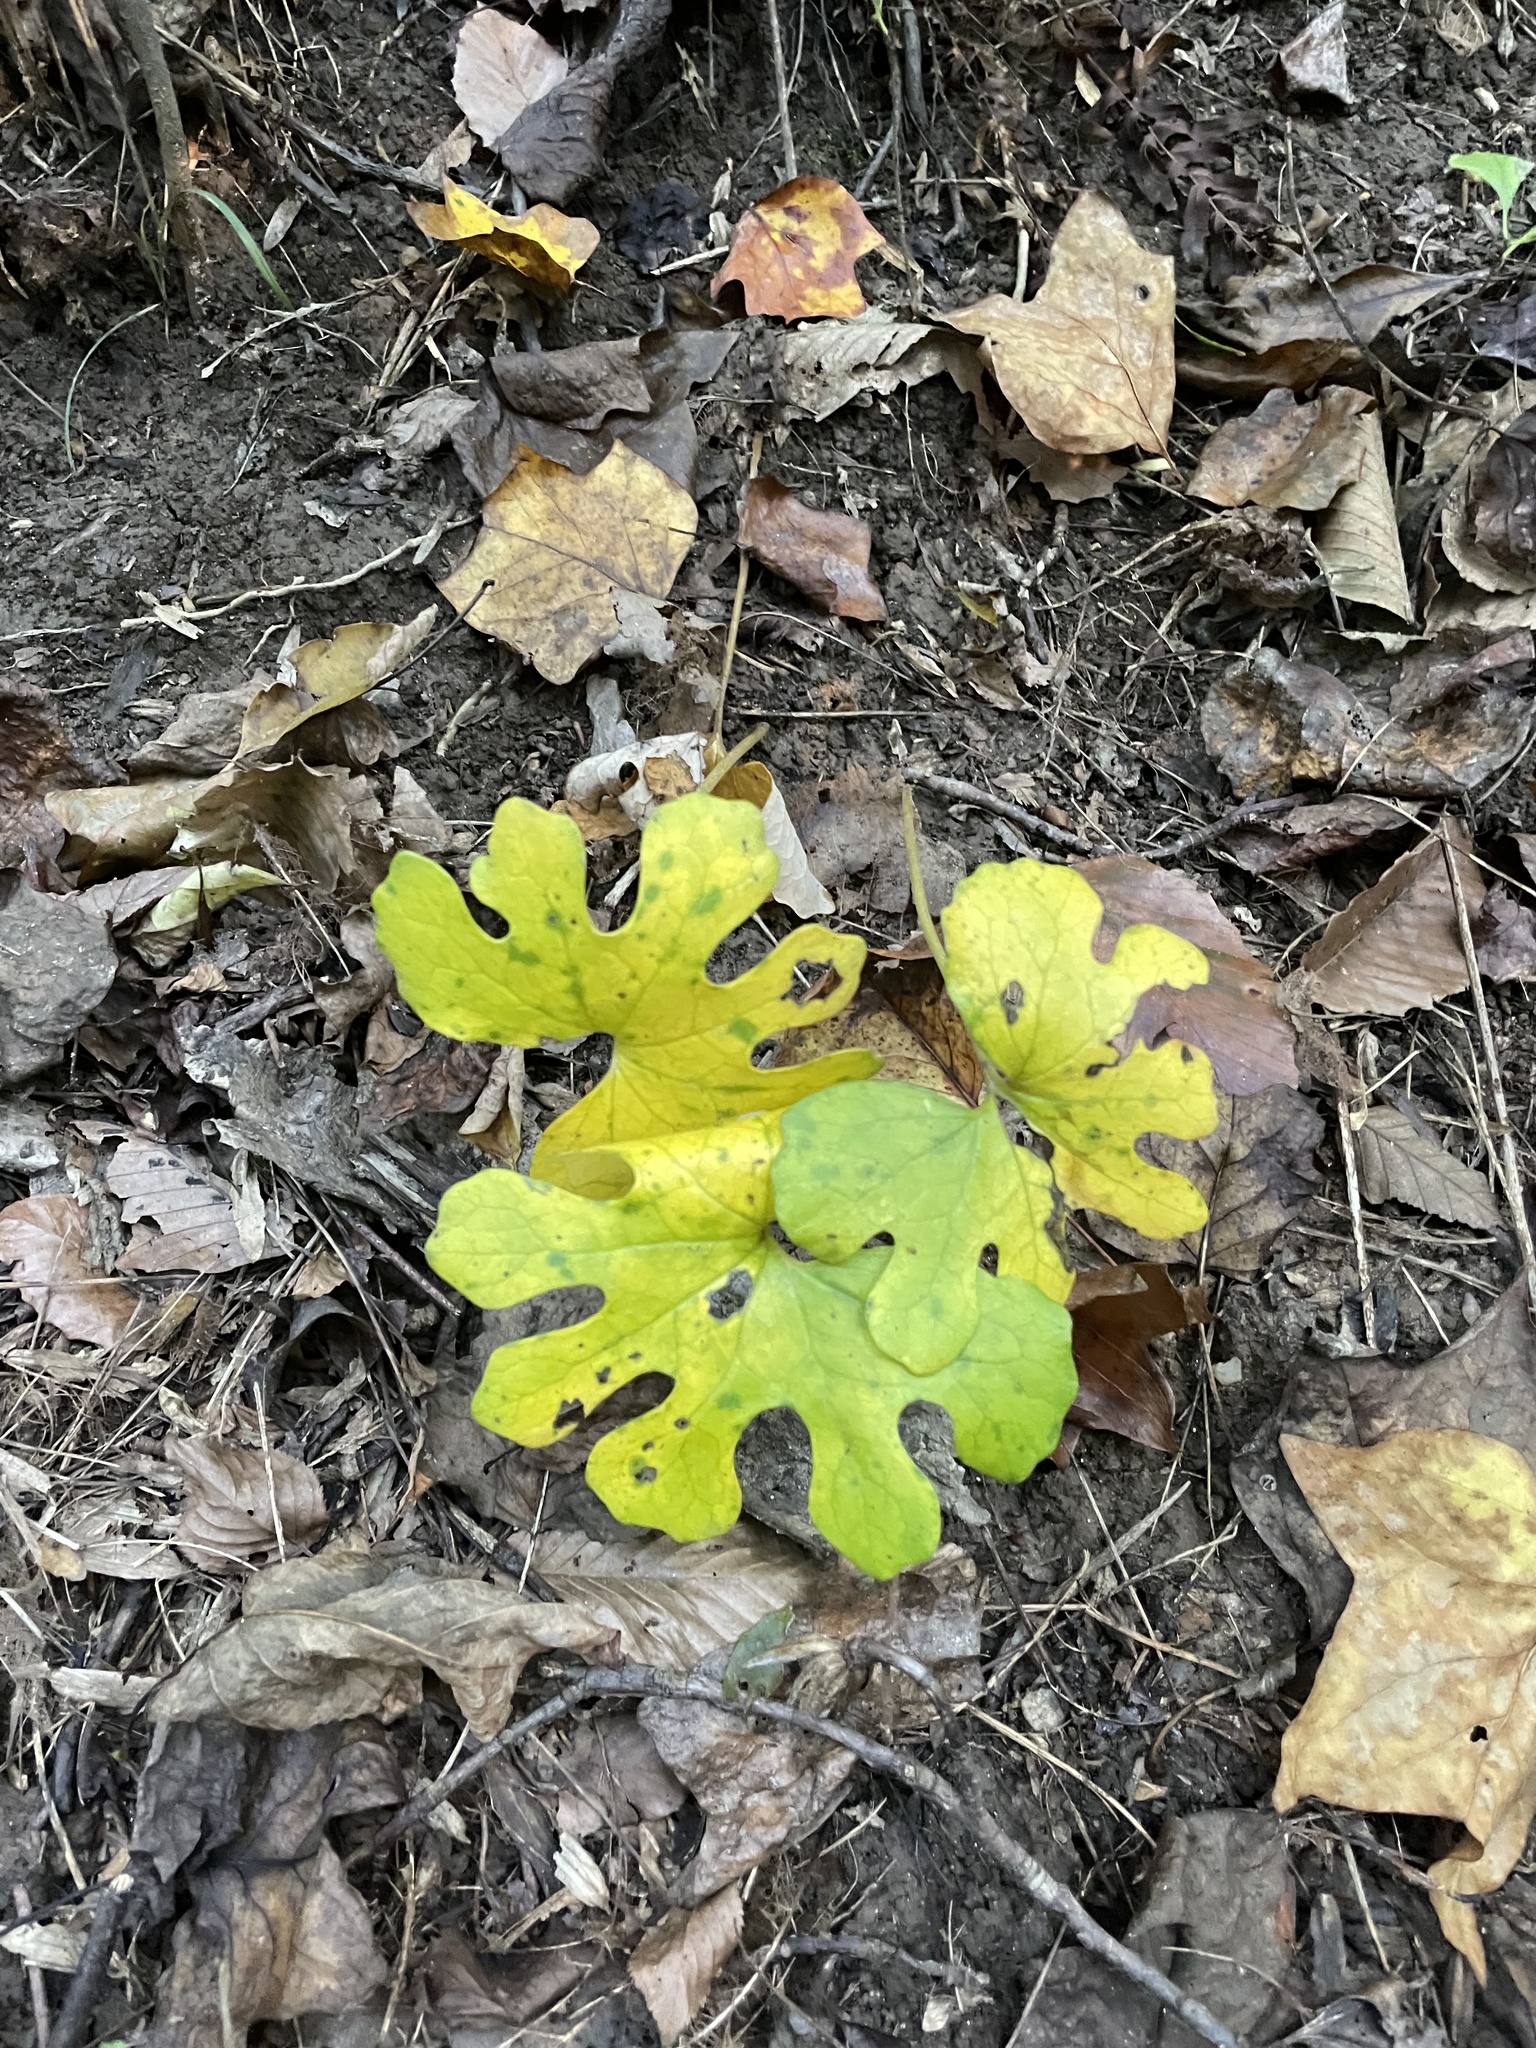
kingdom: Plantae
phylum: Tracheophyta
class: Magnoliopsida
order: Ranunculales
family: Papaveraceae
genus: Sanguinaria
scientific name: Sanguinaria canadensis
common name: Bloodroot
